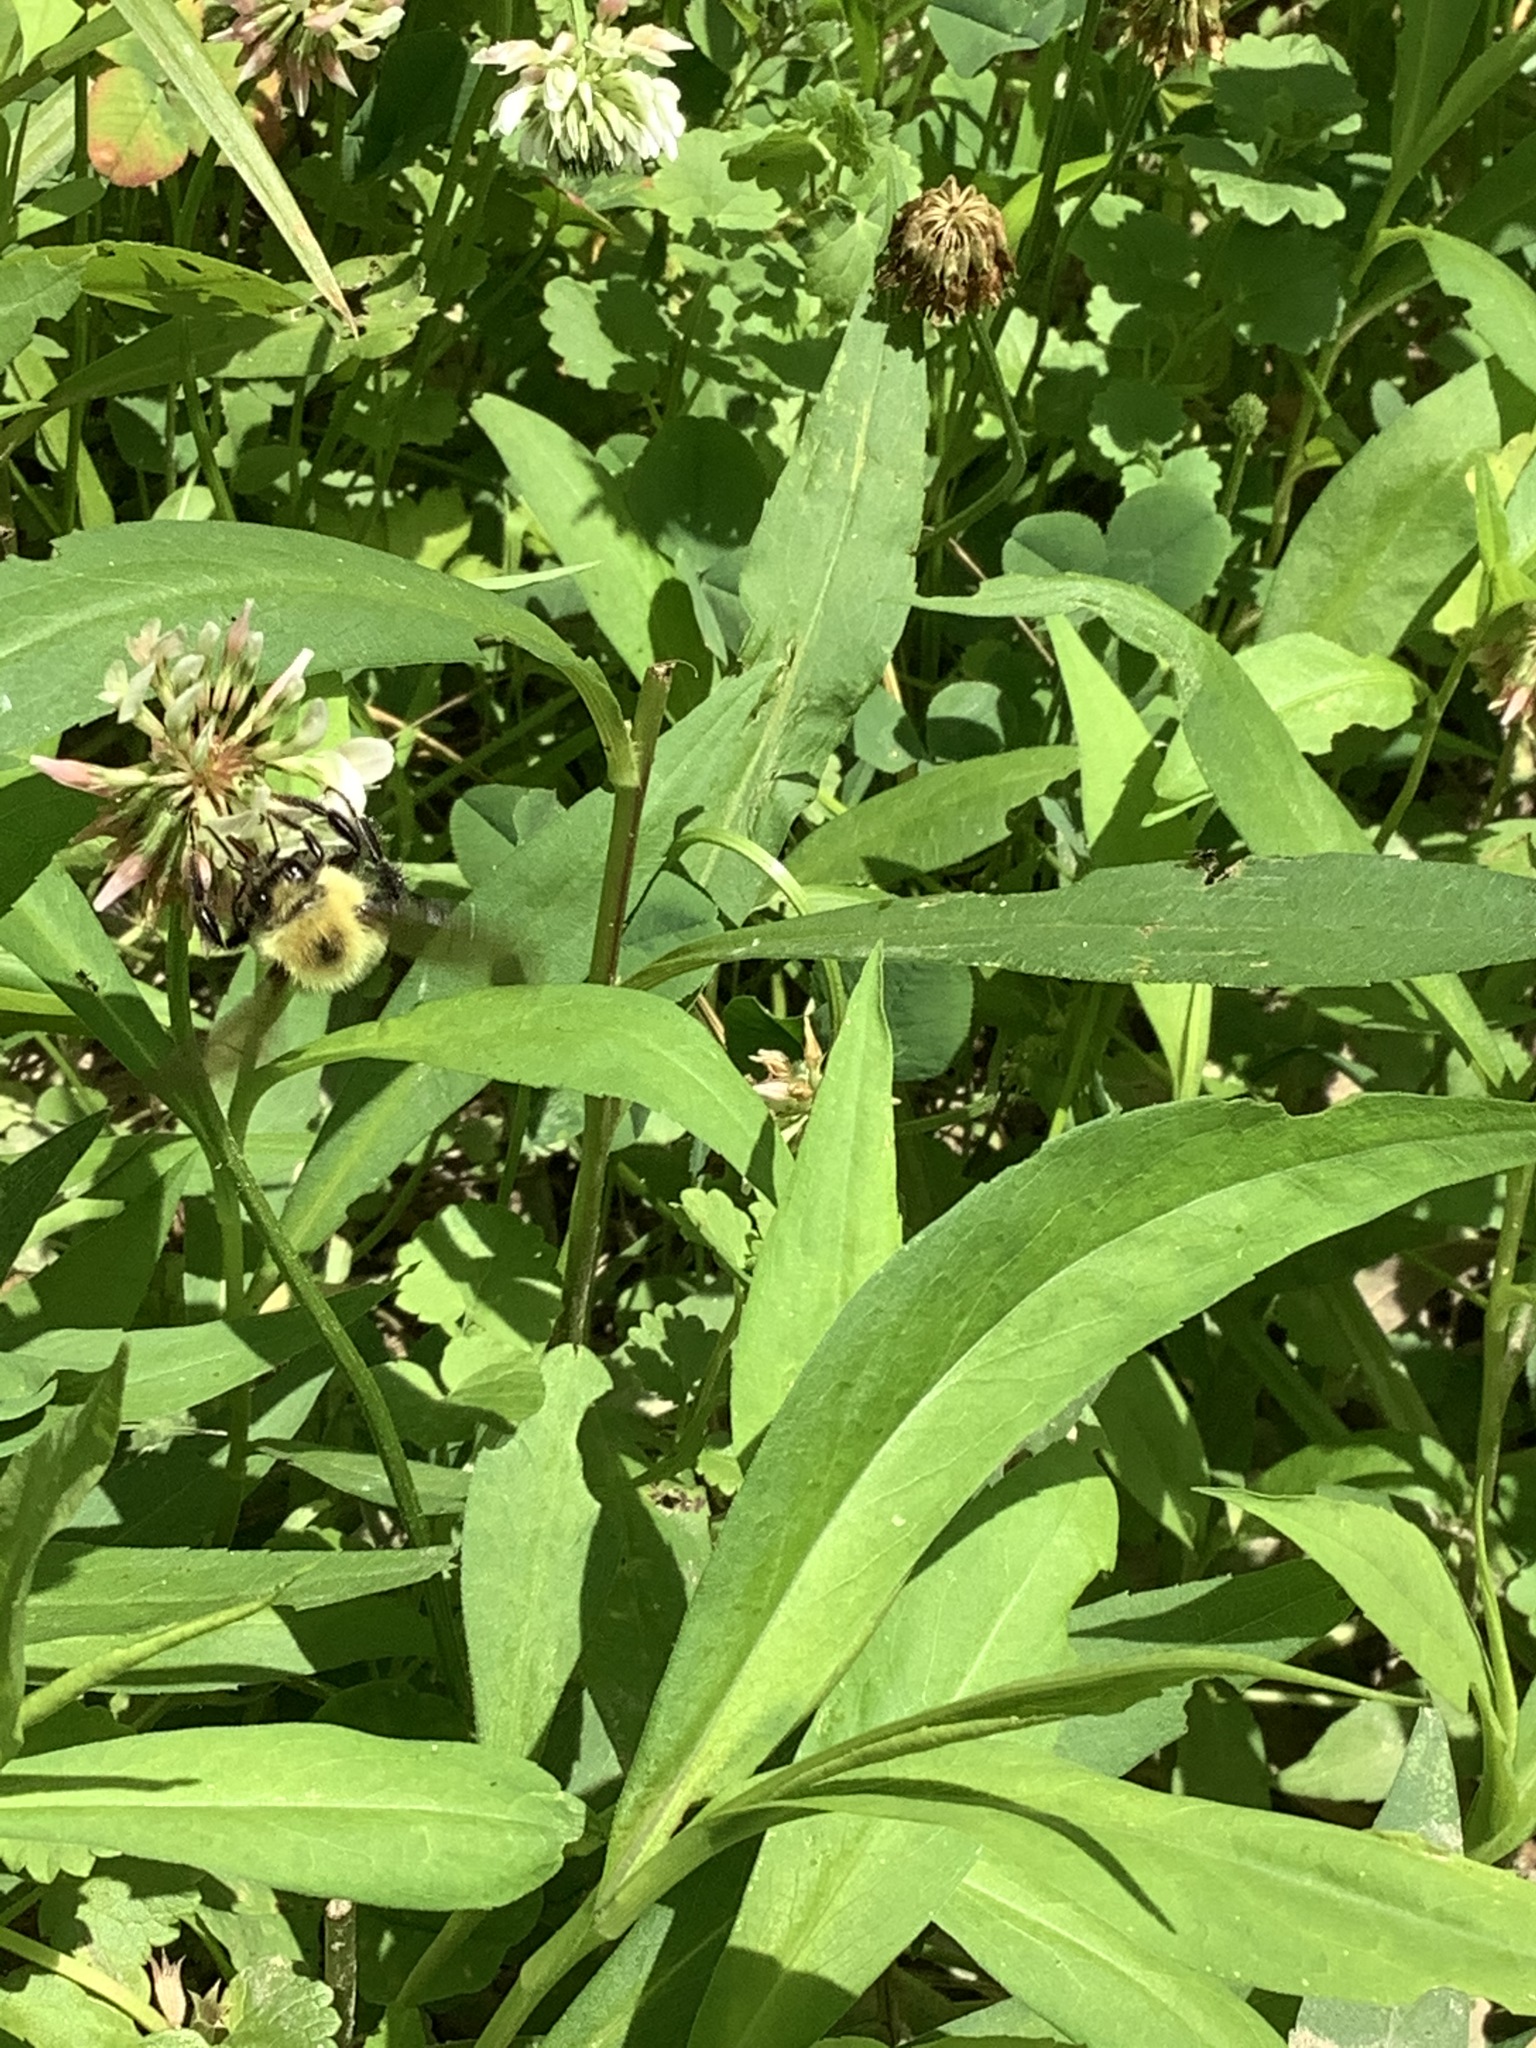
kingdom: Animalia
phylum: Arthropoda
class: Insecta
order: Hymenoptera
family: Apidae
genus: Bombus
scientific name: Bombus bimaculatus
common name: Two-spotted bumble bee
